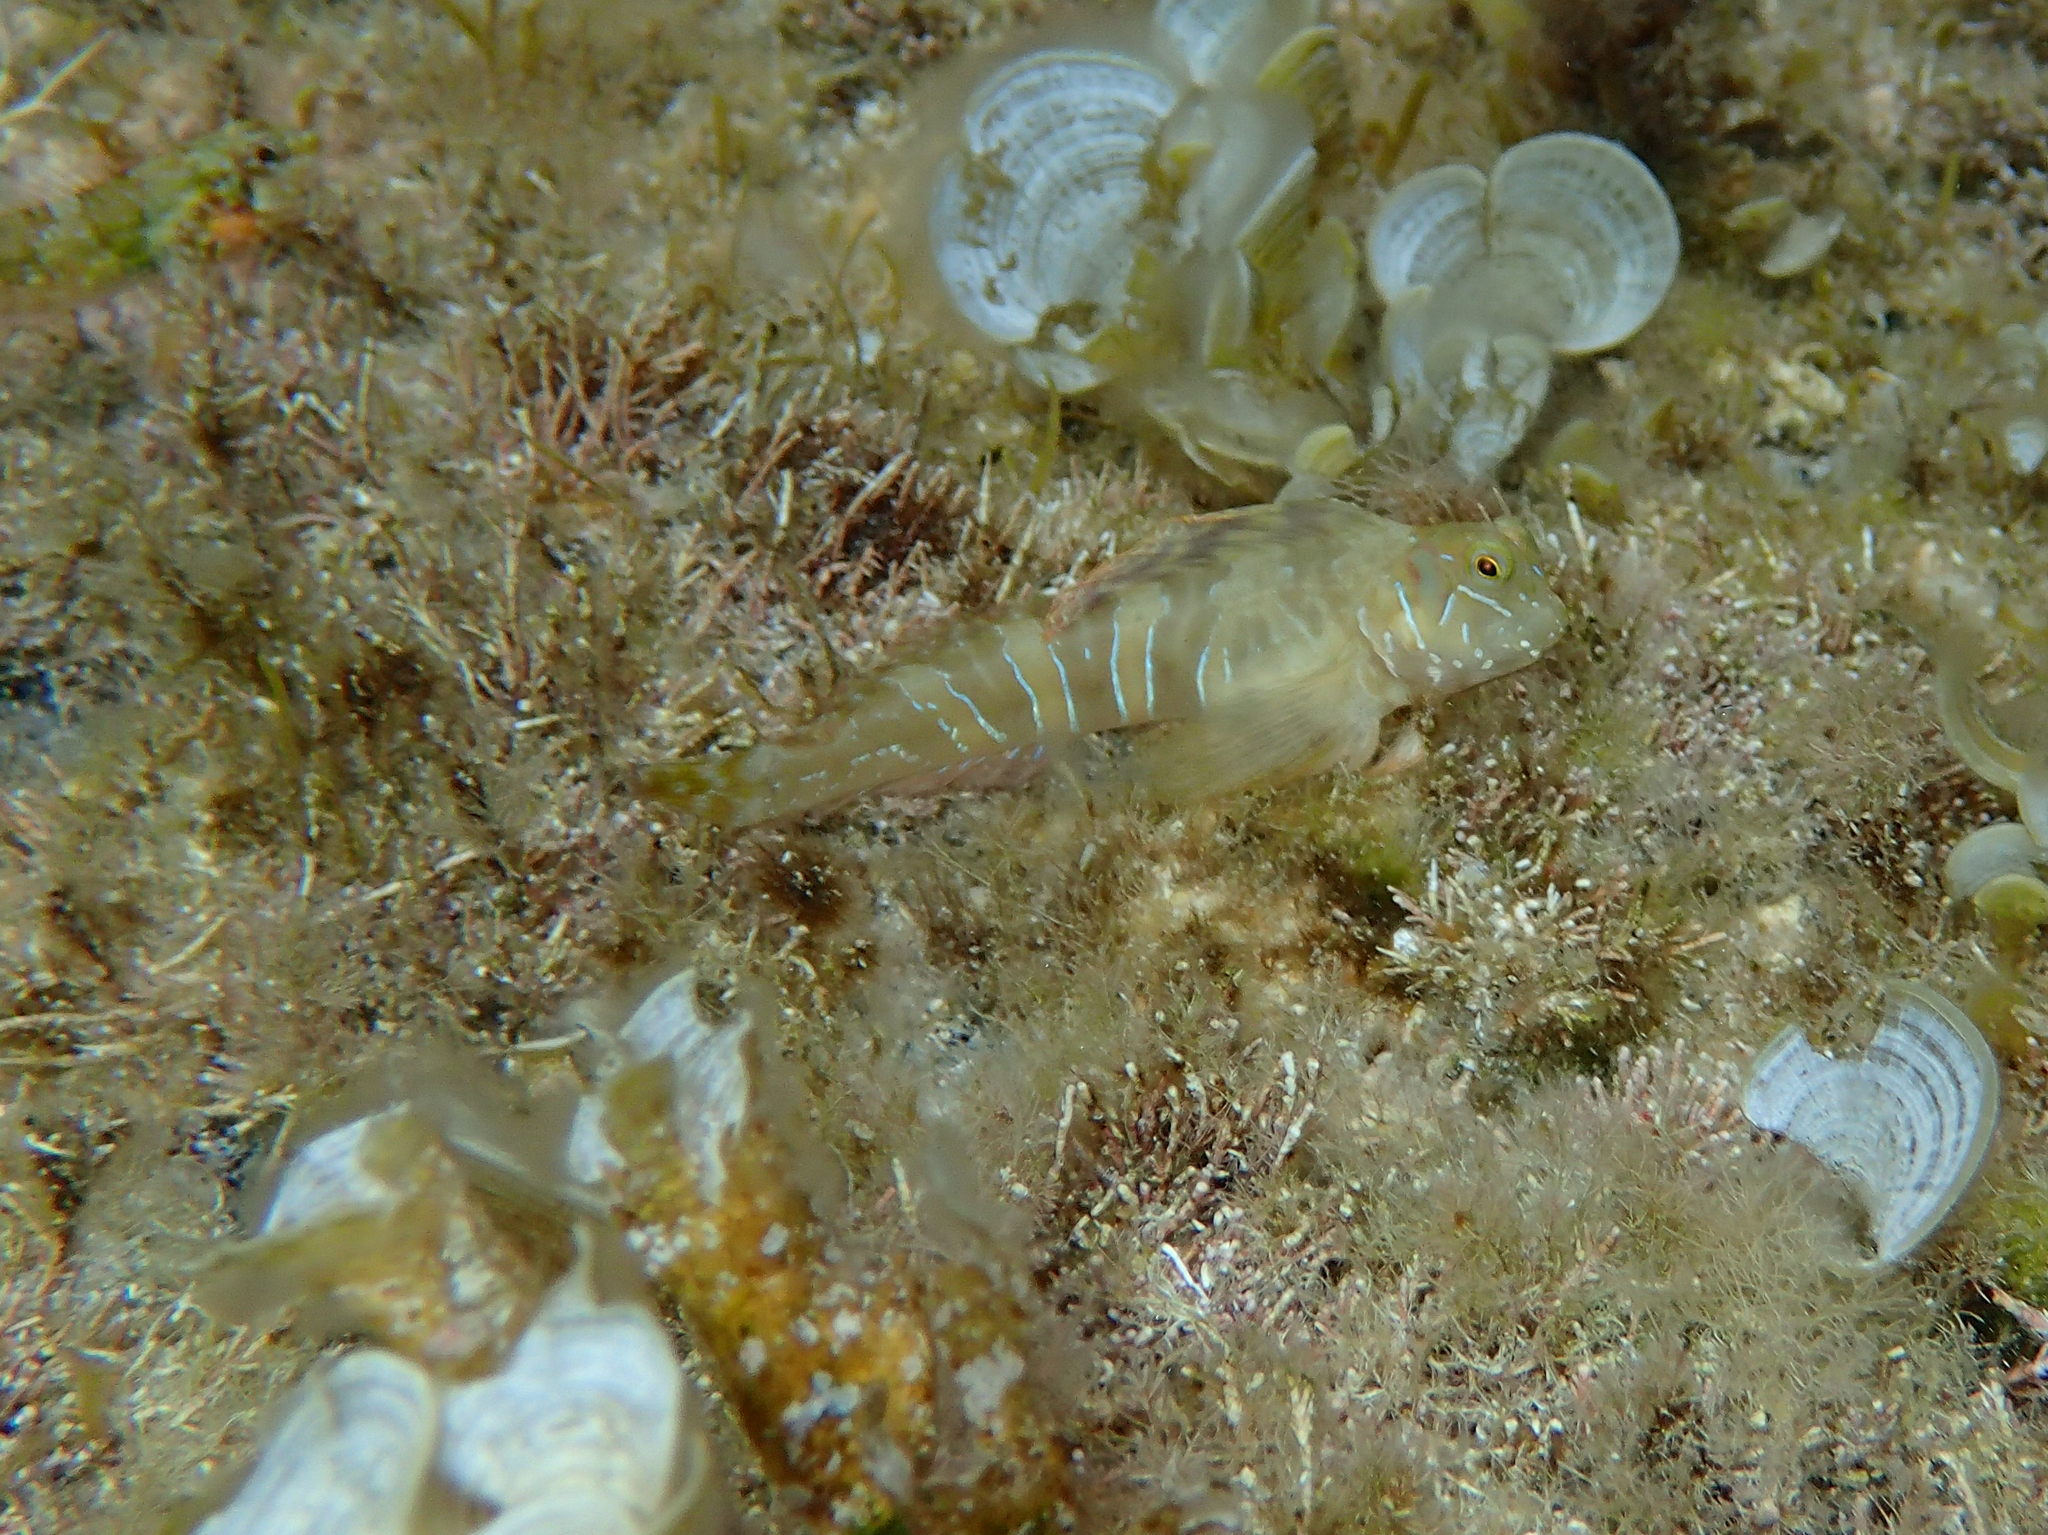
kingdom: Animalia
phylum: Chordata
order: Perciformes
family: Blenniidae
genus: Aidablennius
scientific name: Aidablennius sphynx
